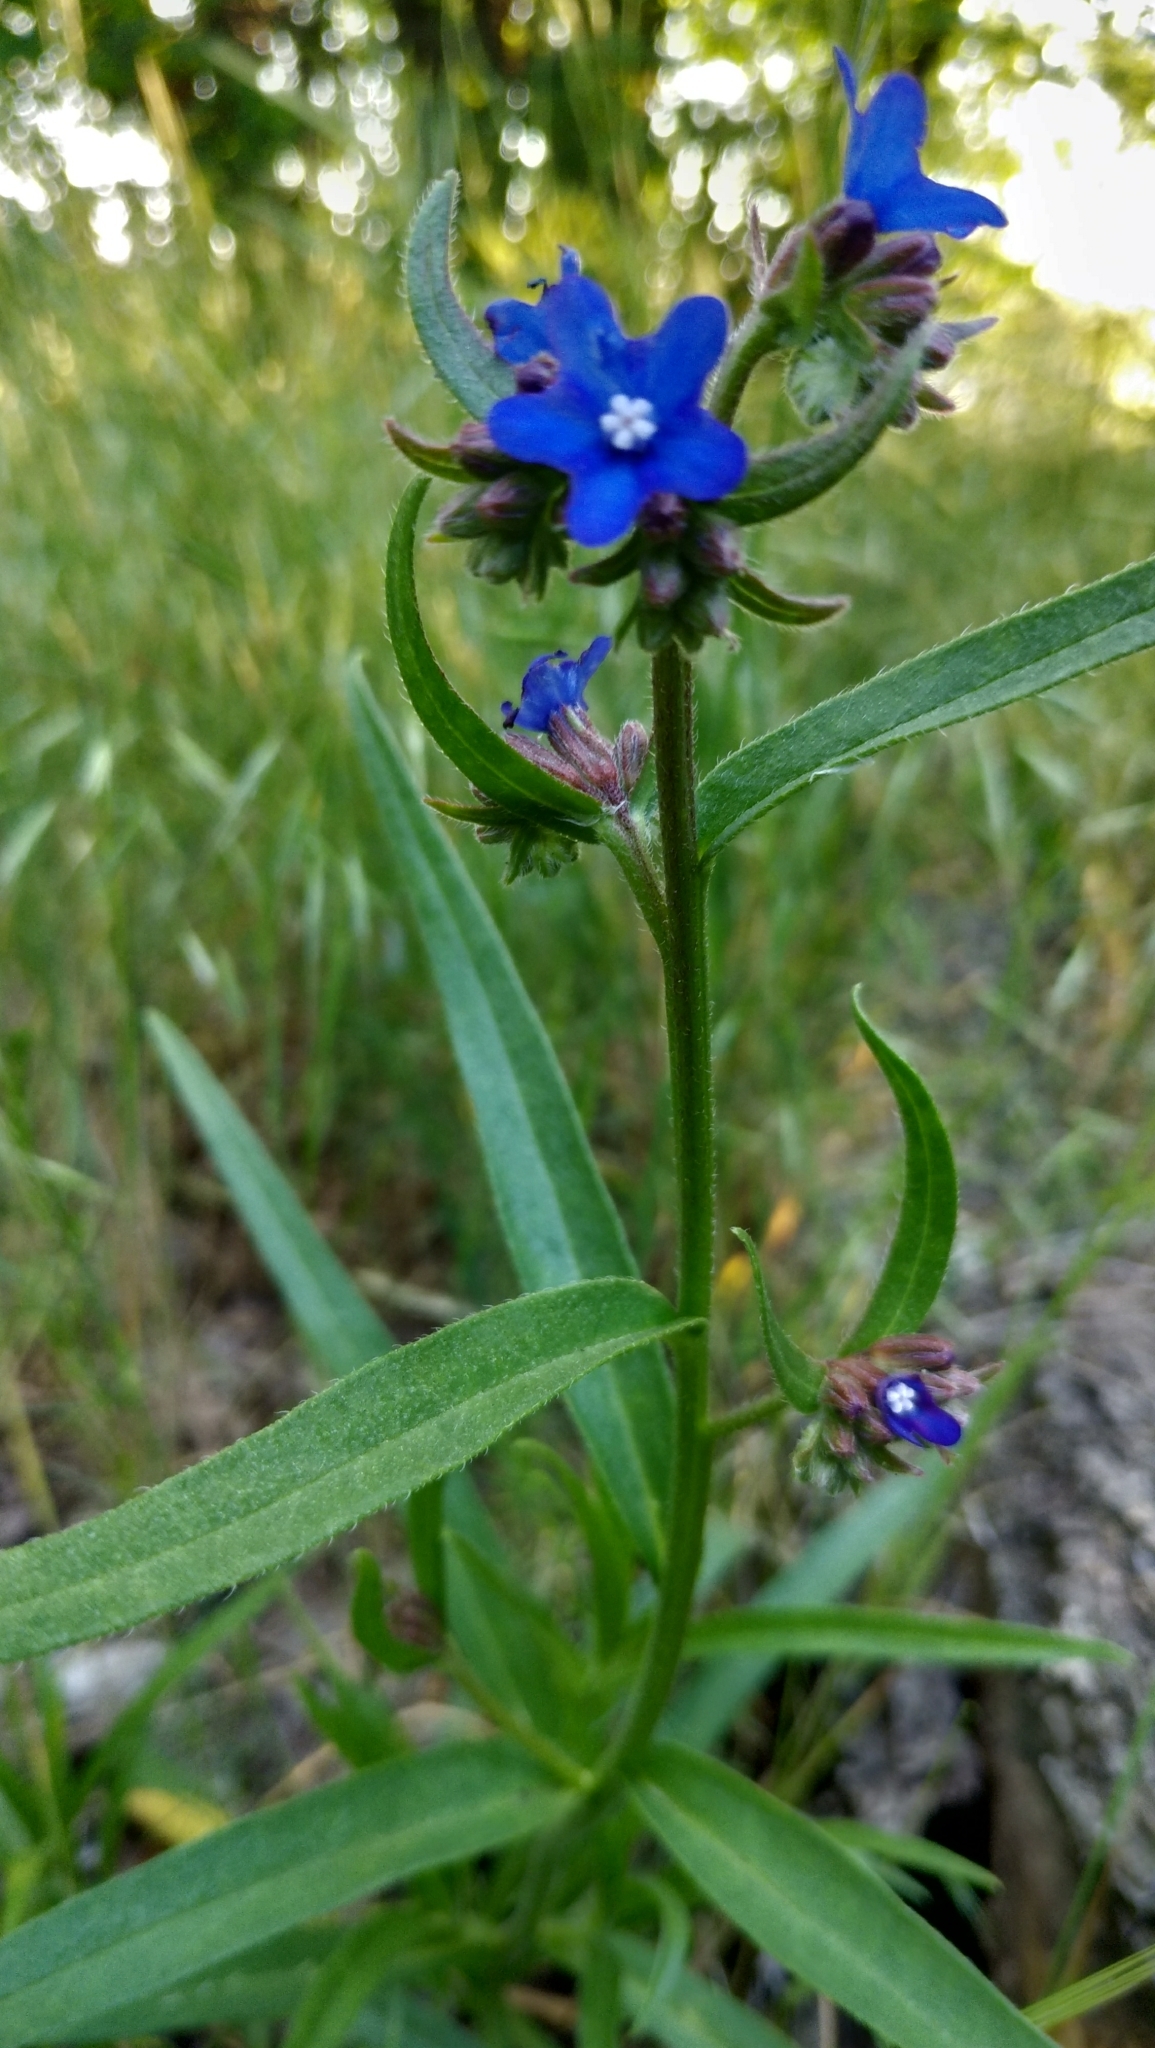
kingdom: Plantae
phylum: Tracheophyta
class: Magnoliopsida
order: Boraginales
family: Boraginaceae
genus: Anchusa
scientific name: Anchusa gmelinii
